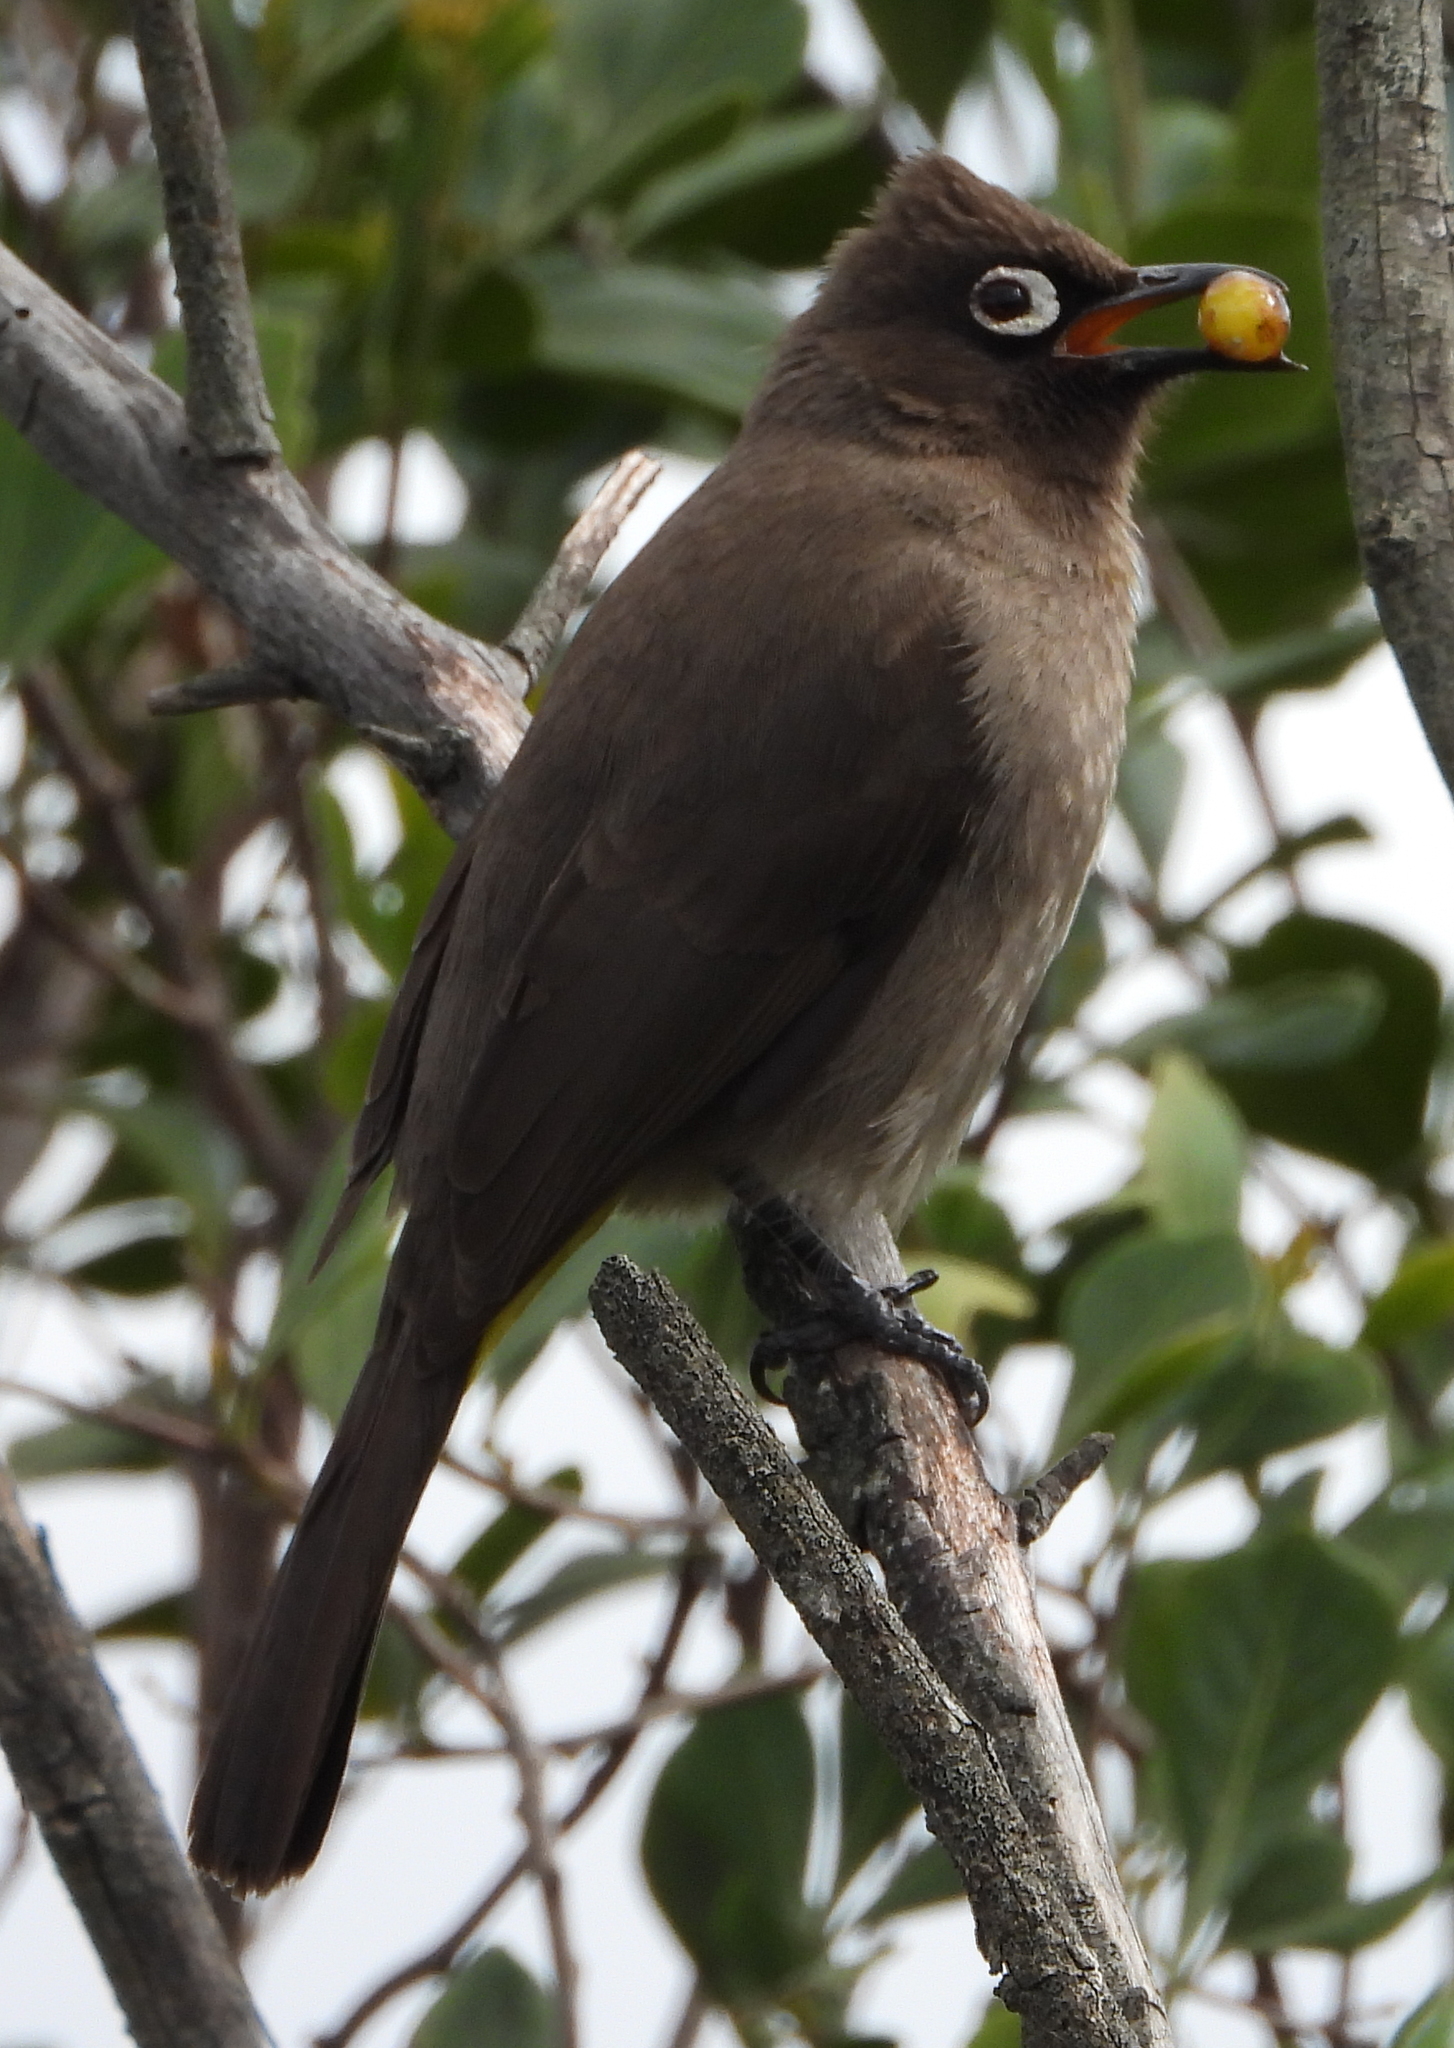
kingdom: Animalia
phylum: Chordata
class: Aves
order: Passeriformes
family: Pycnonotidae
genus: Pycnonotus
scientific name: Pycnonotus capensis
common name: Cape bulbul
